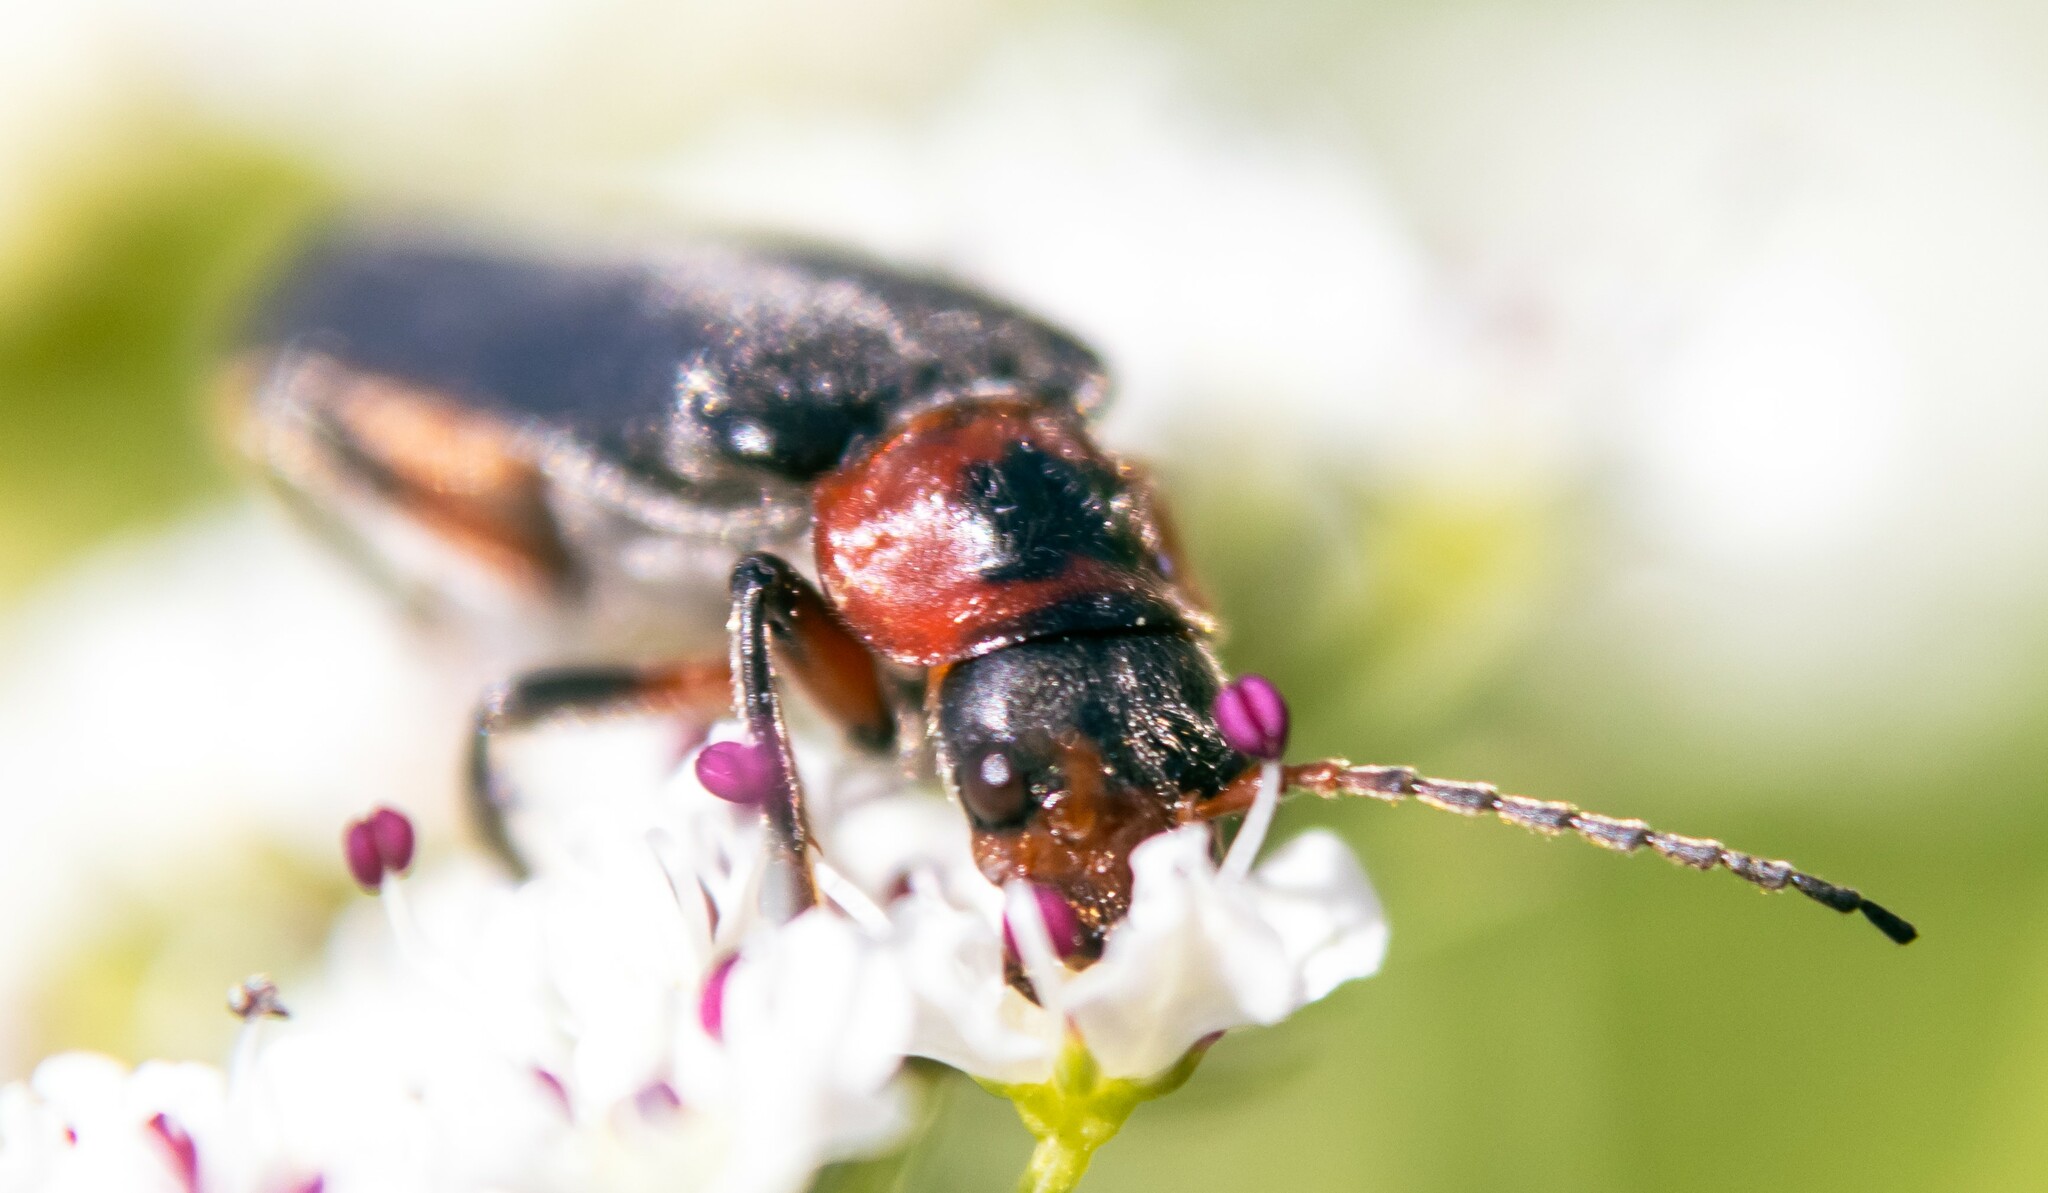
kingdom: Animalia
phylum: Arthropoda
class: Insecta
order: Coleoptera
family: Cantharidae
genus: Cantharis
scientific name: Cantharis rustica
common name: Soldier beetle
